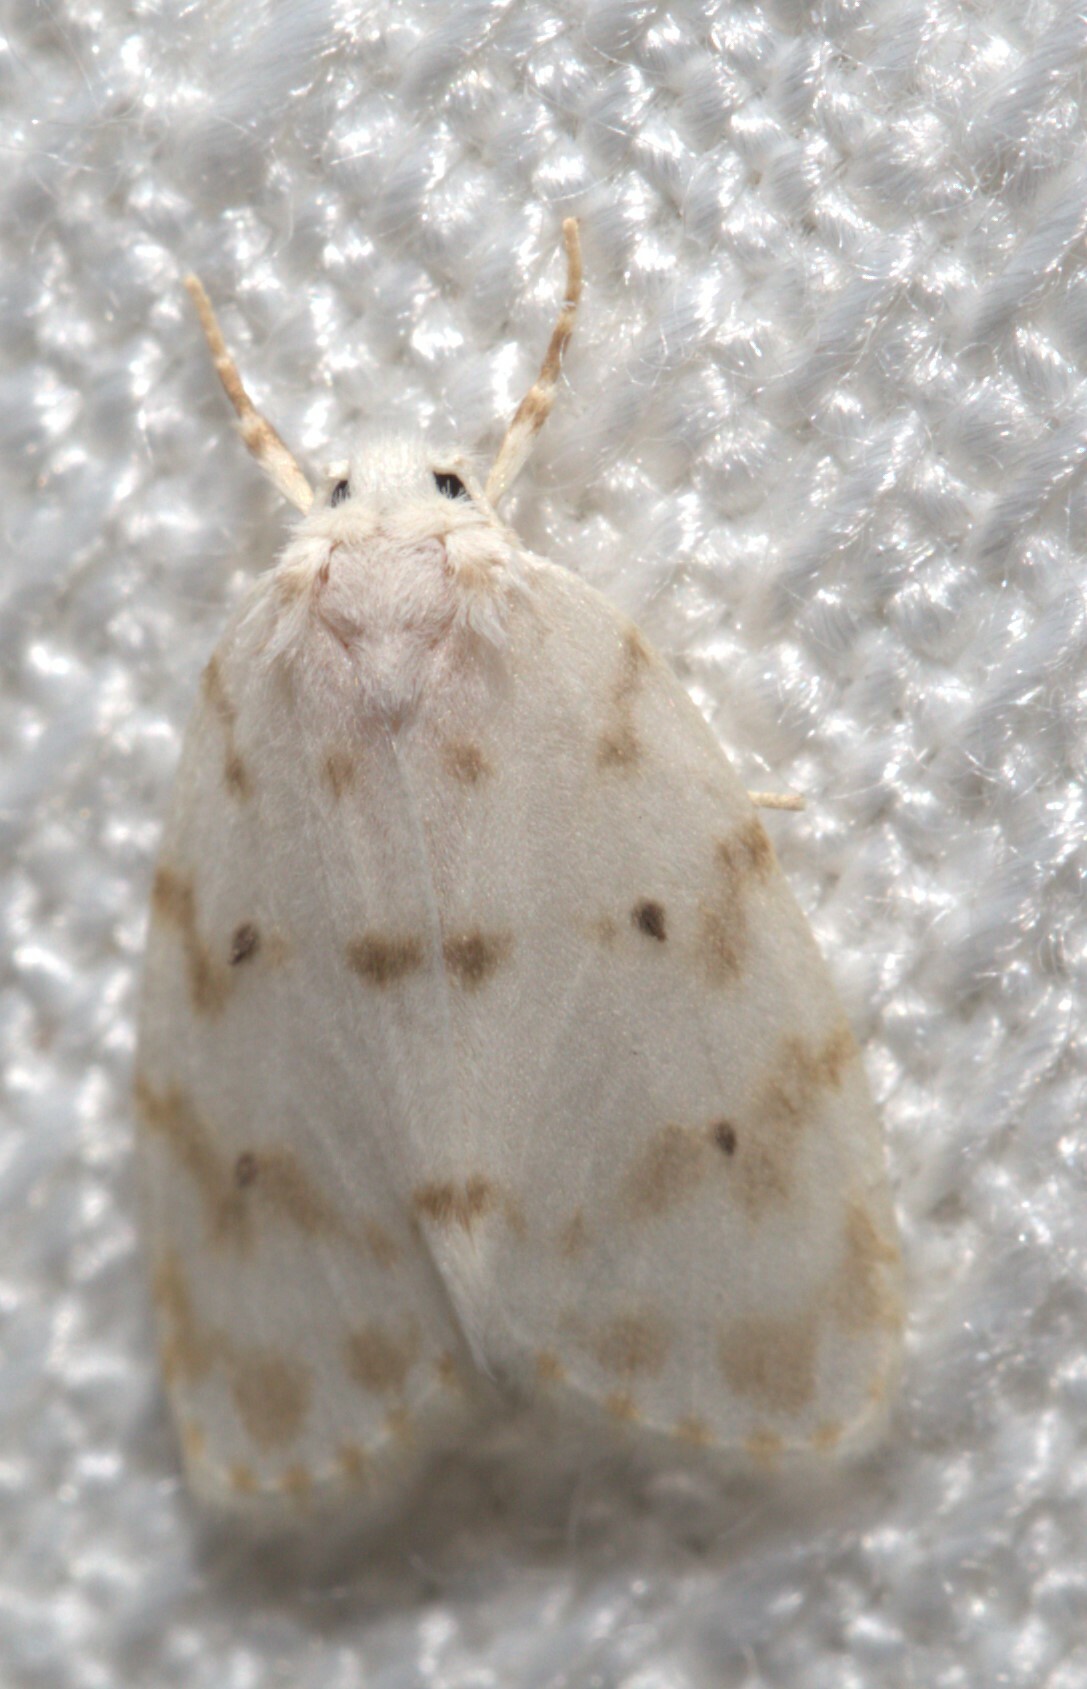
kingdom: Animalia
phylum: Arthropoda
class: Insecta
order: Lepidoptera
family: Erebidae
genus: Schistophleps
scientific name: Schistophleps albida
